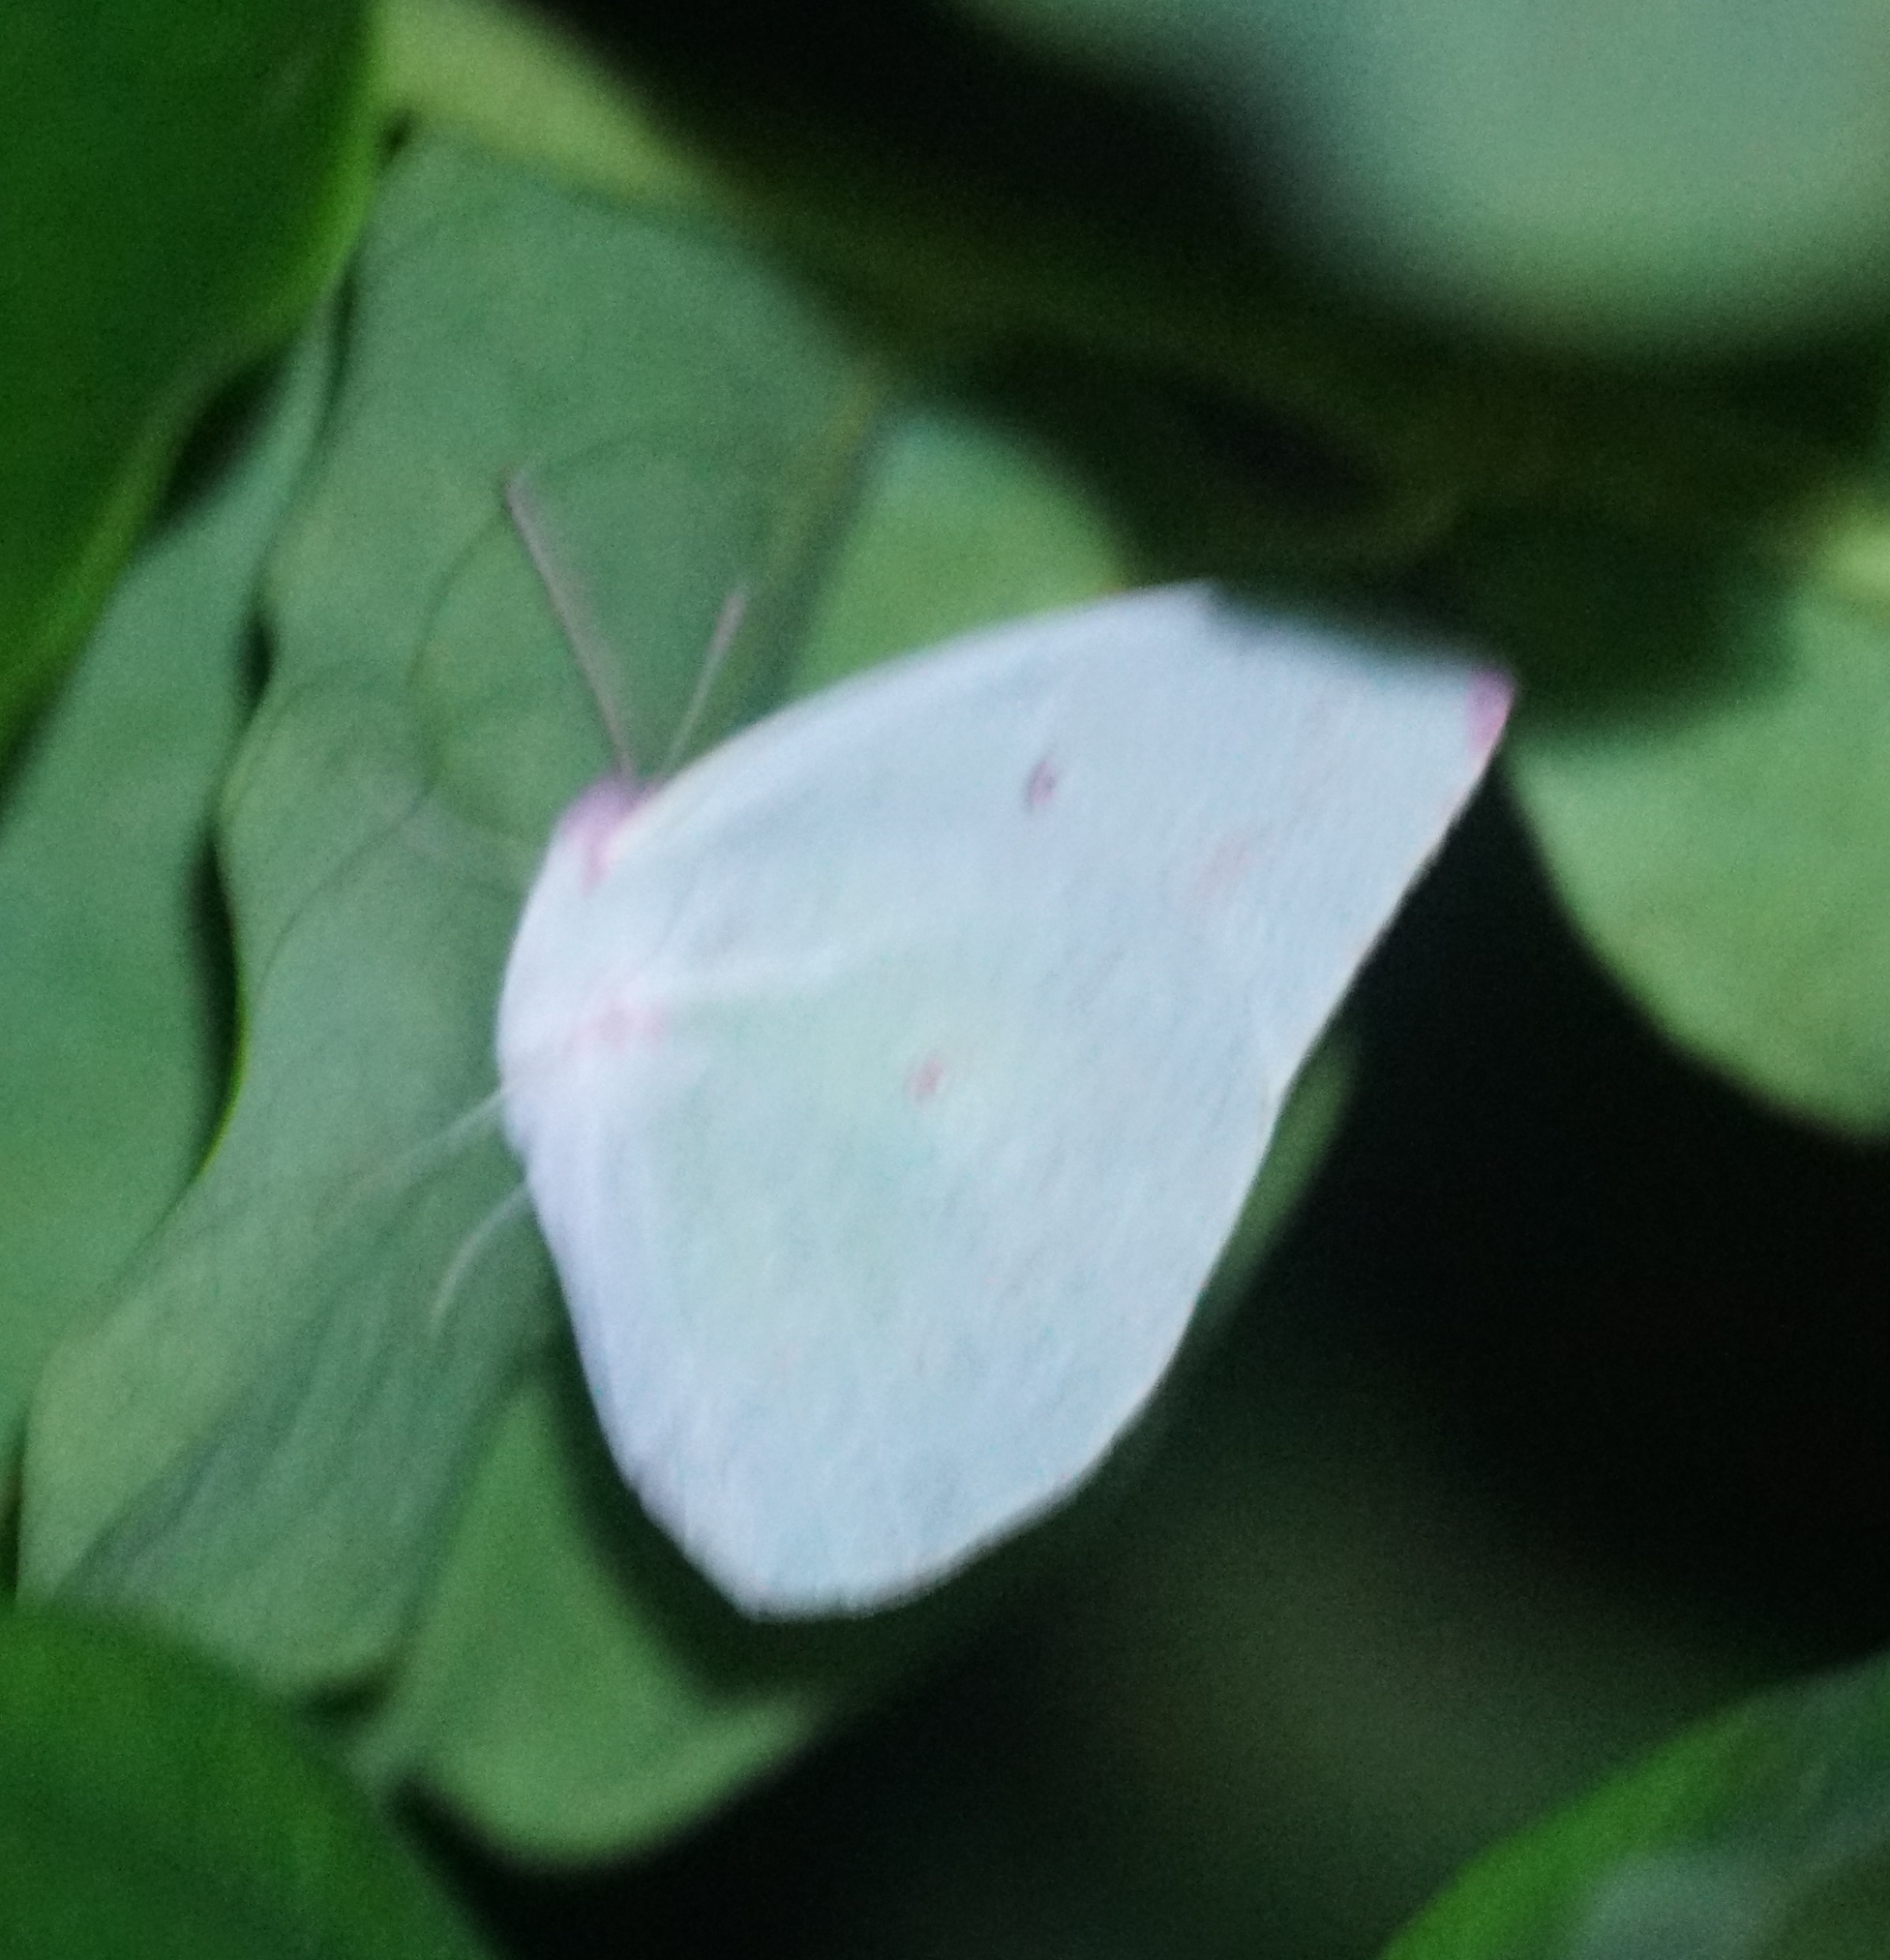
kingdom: Animalia
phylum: Arthropoda
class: Insecta
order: Lepidoptera
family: Pieridae
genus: Catopsilia
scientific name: Catopsilia pomona
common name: Common emigrant
